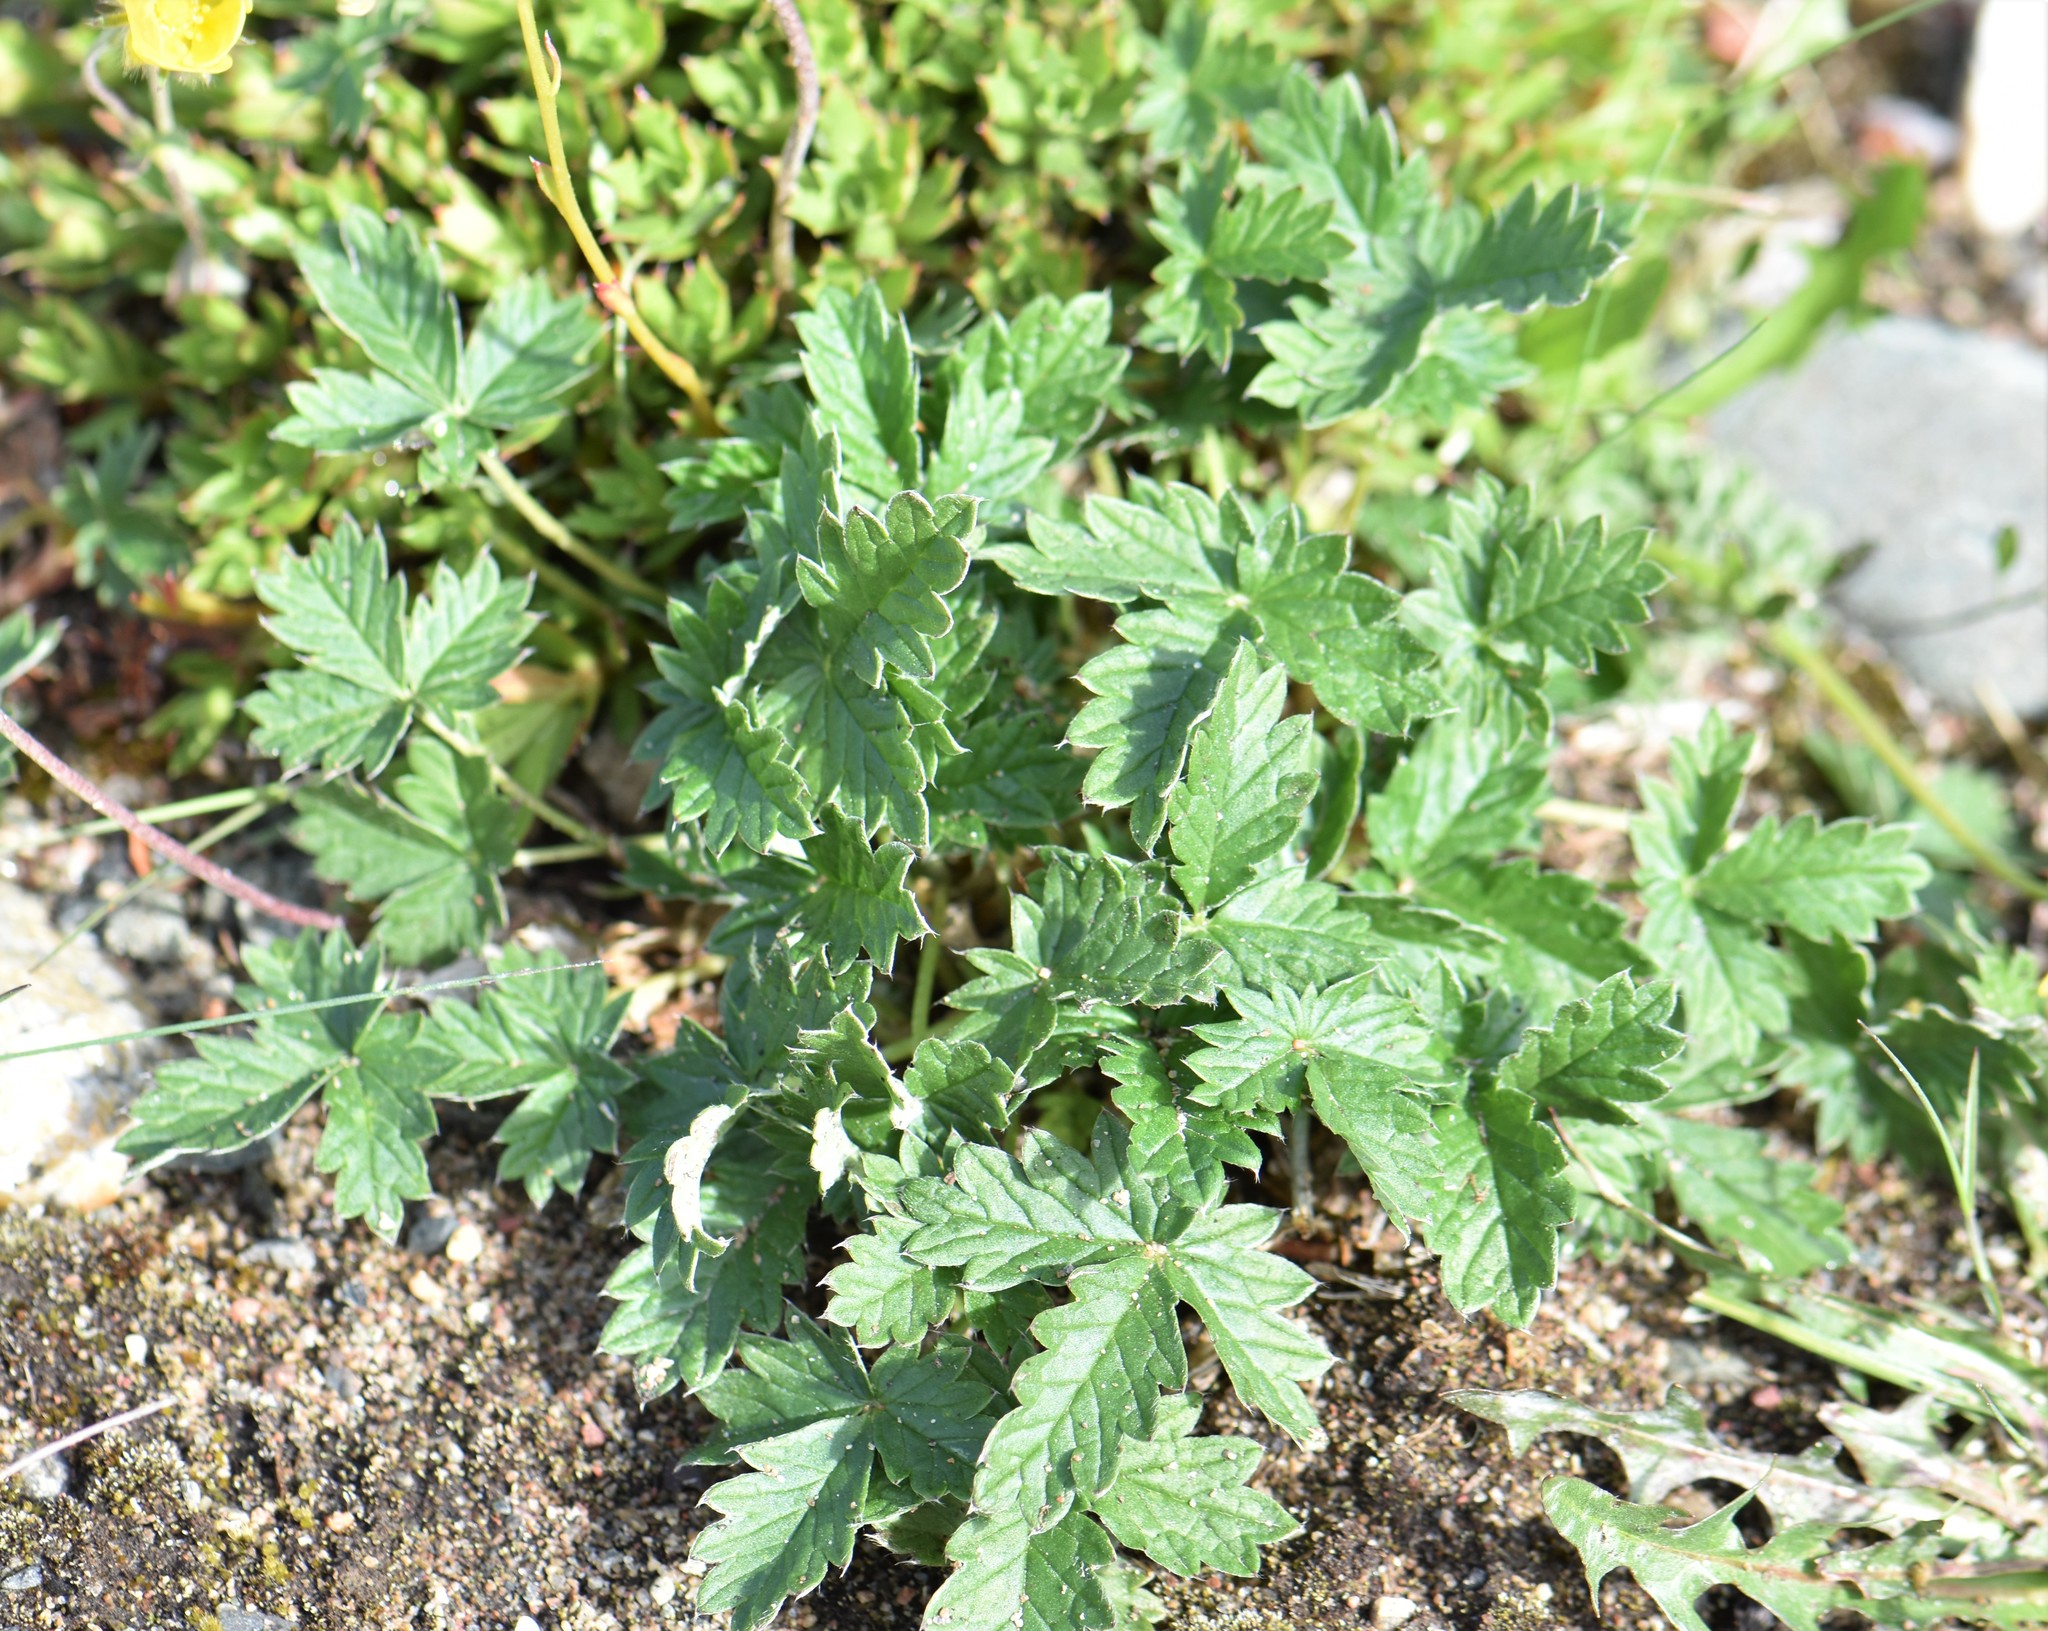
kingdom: Plantae
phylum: Tracheophyta
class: Magnoliopsida
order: Rosales
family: Rosaceae
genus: Potentilla
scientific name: Potentilla hyparctica
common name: Arctic cinquefoil
